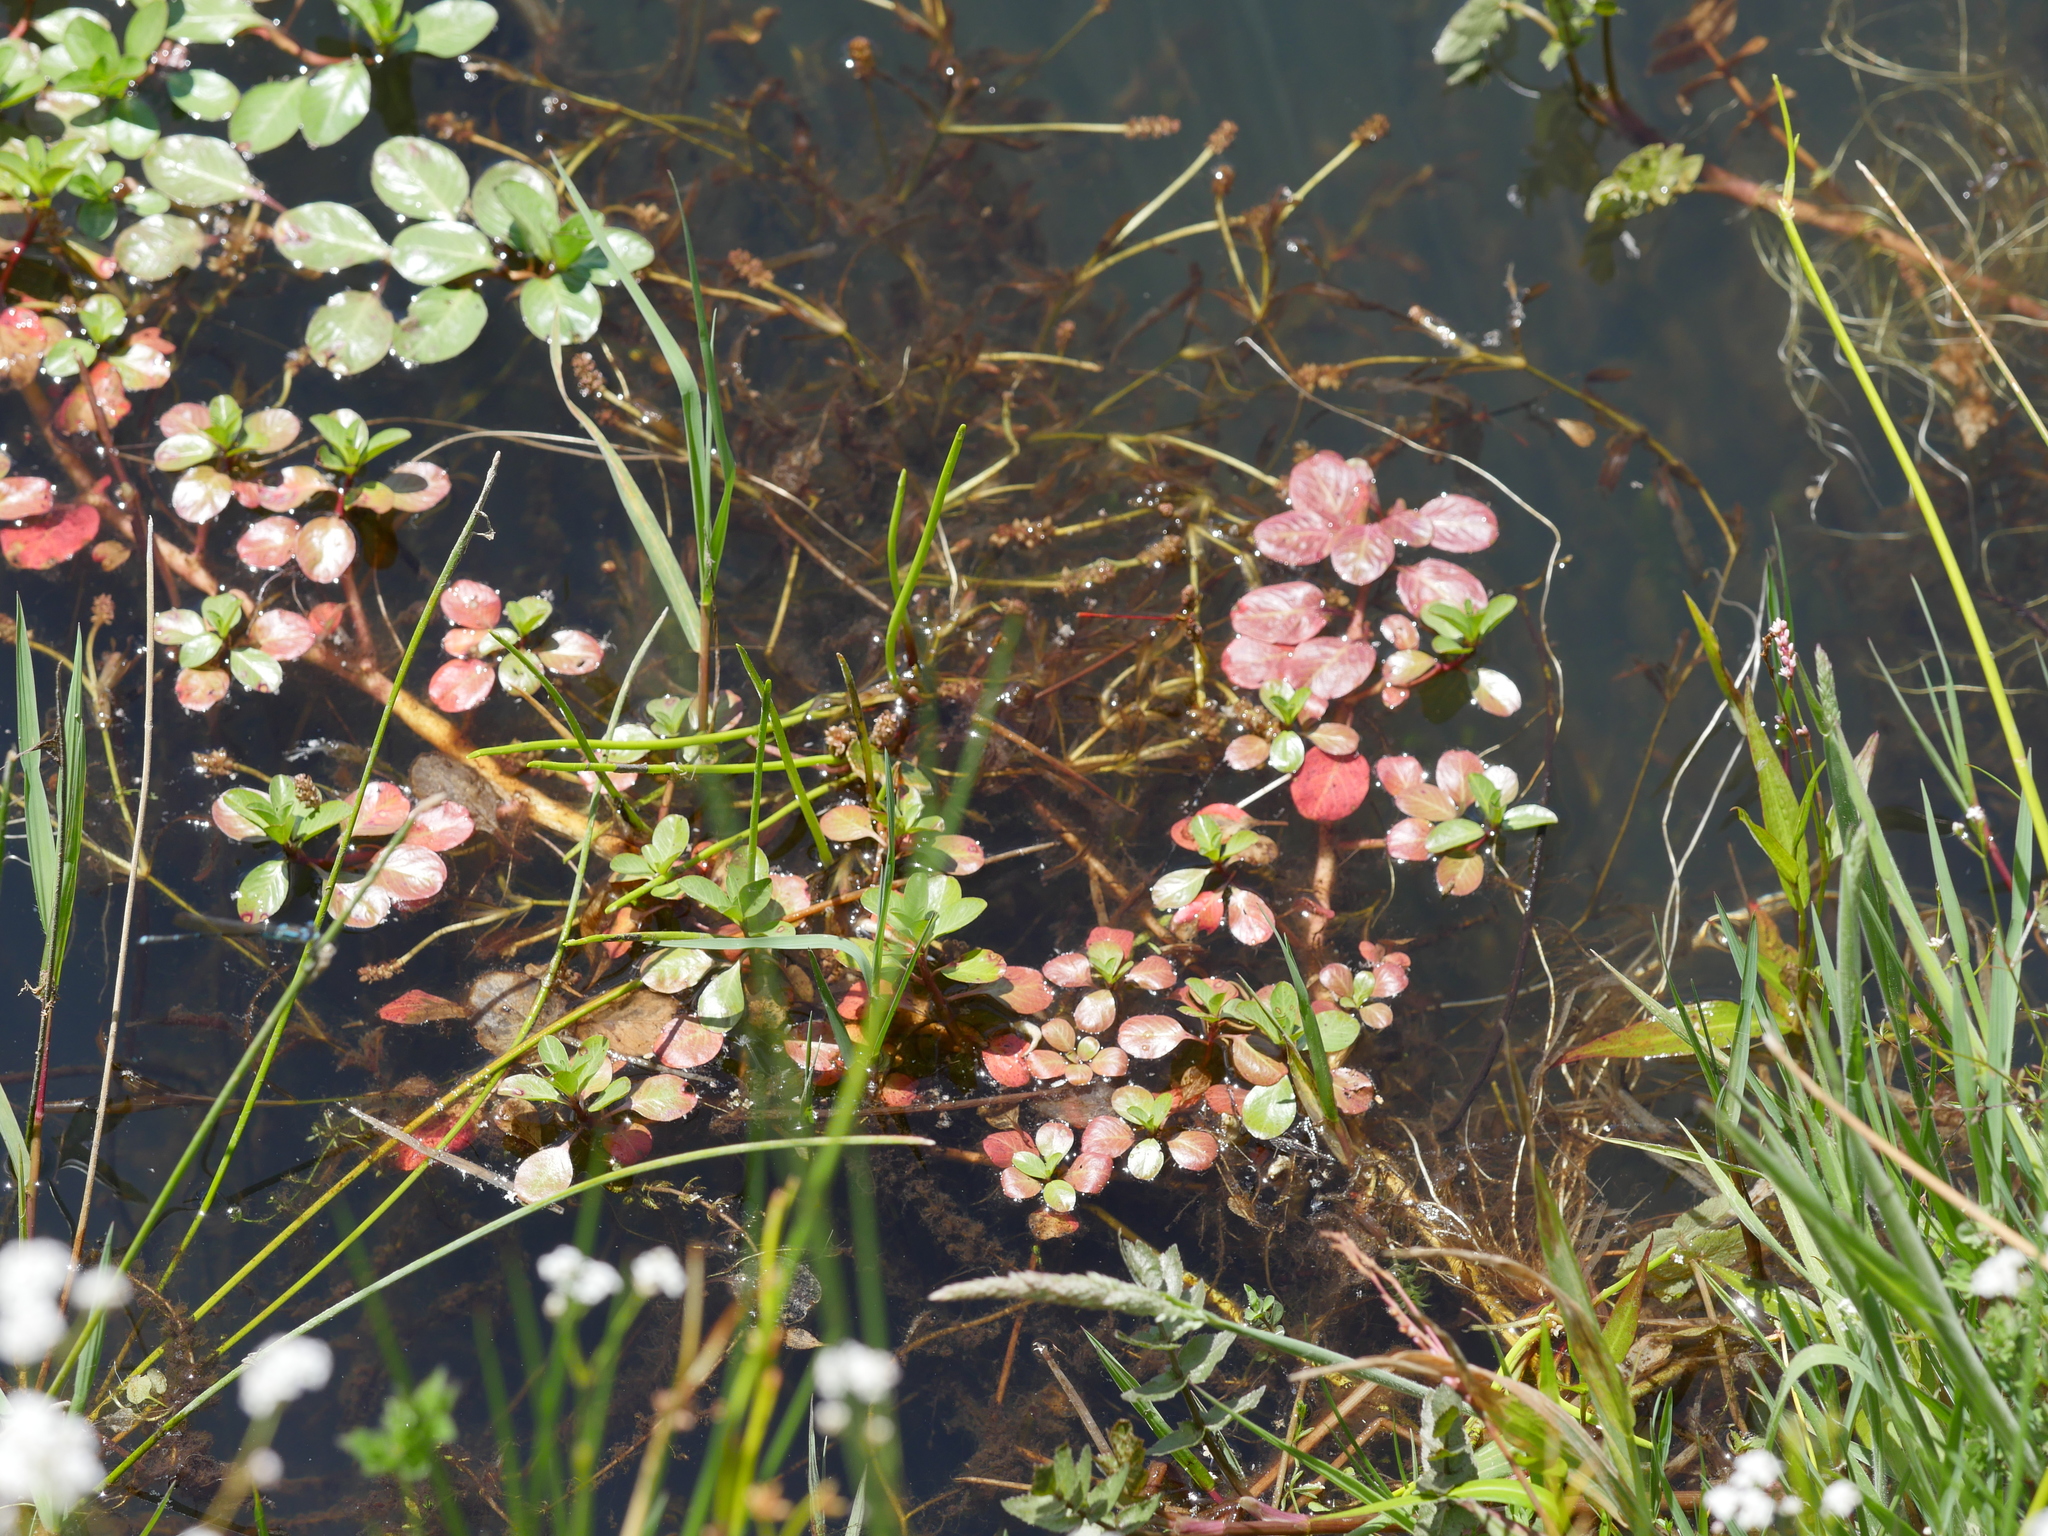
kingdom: Plantae
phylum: Tracheophyta
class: Magnoliopsida
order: Myrtales
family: Onagraceae
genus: Ludwigia
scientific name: Ludwigia peploides
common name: Floating primrose-willow
